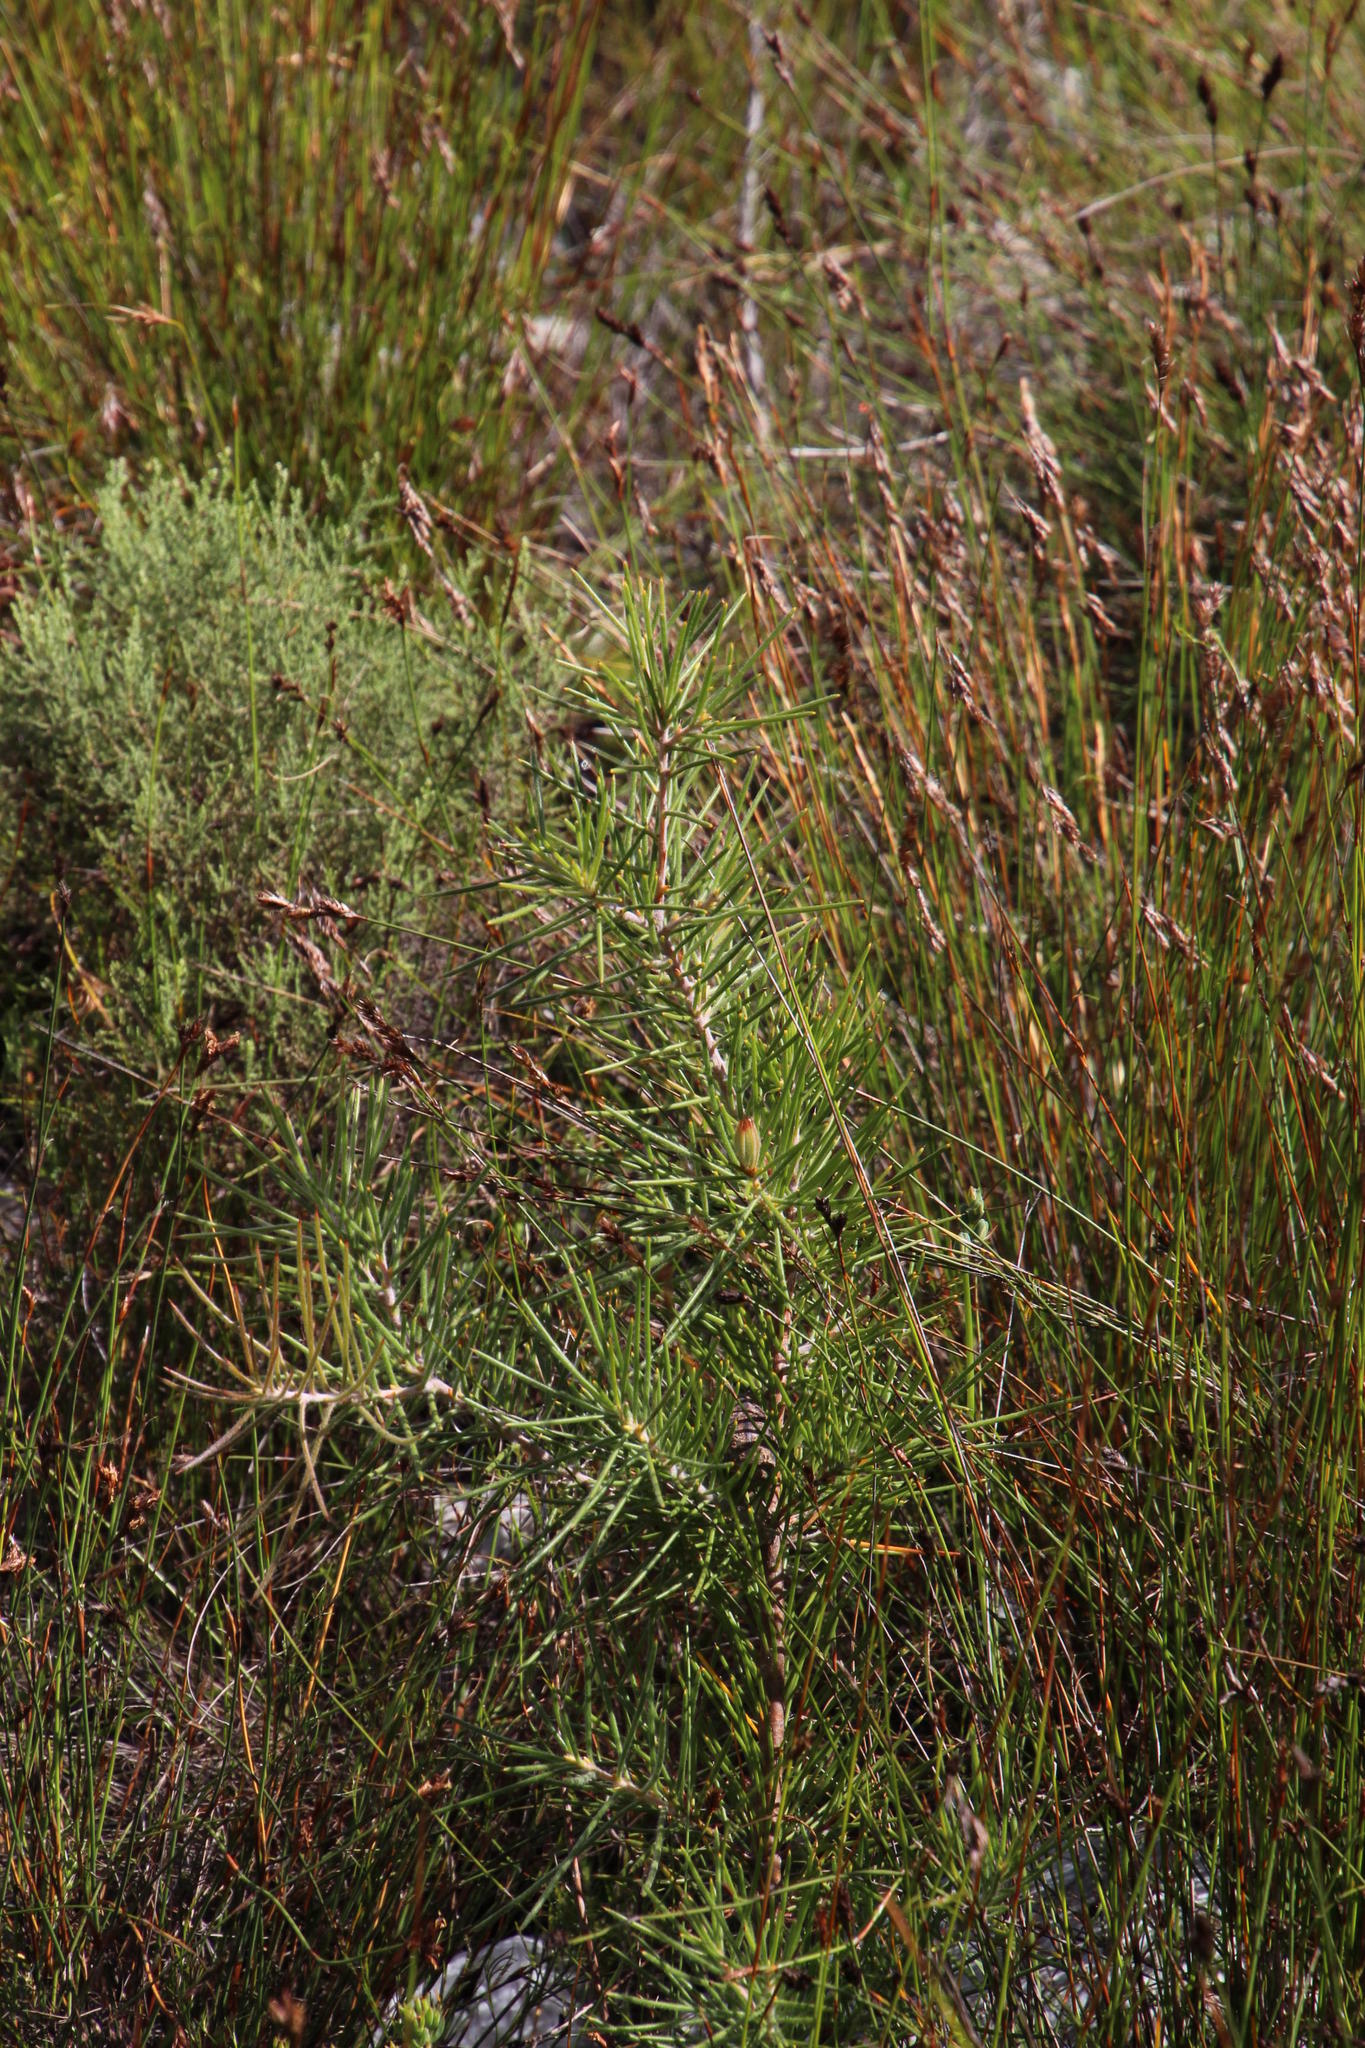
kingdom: Plantae
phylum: Tracheophyta
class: Magnoliopsida
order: Proteales
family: Proteaceae
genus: Hakea
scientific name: Hakea gibbosa
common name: Rock hakea
